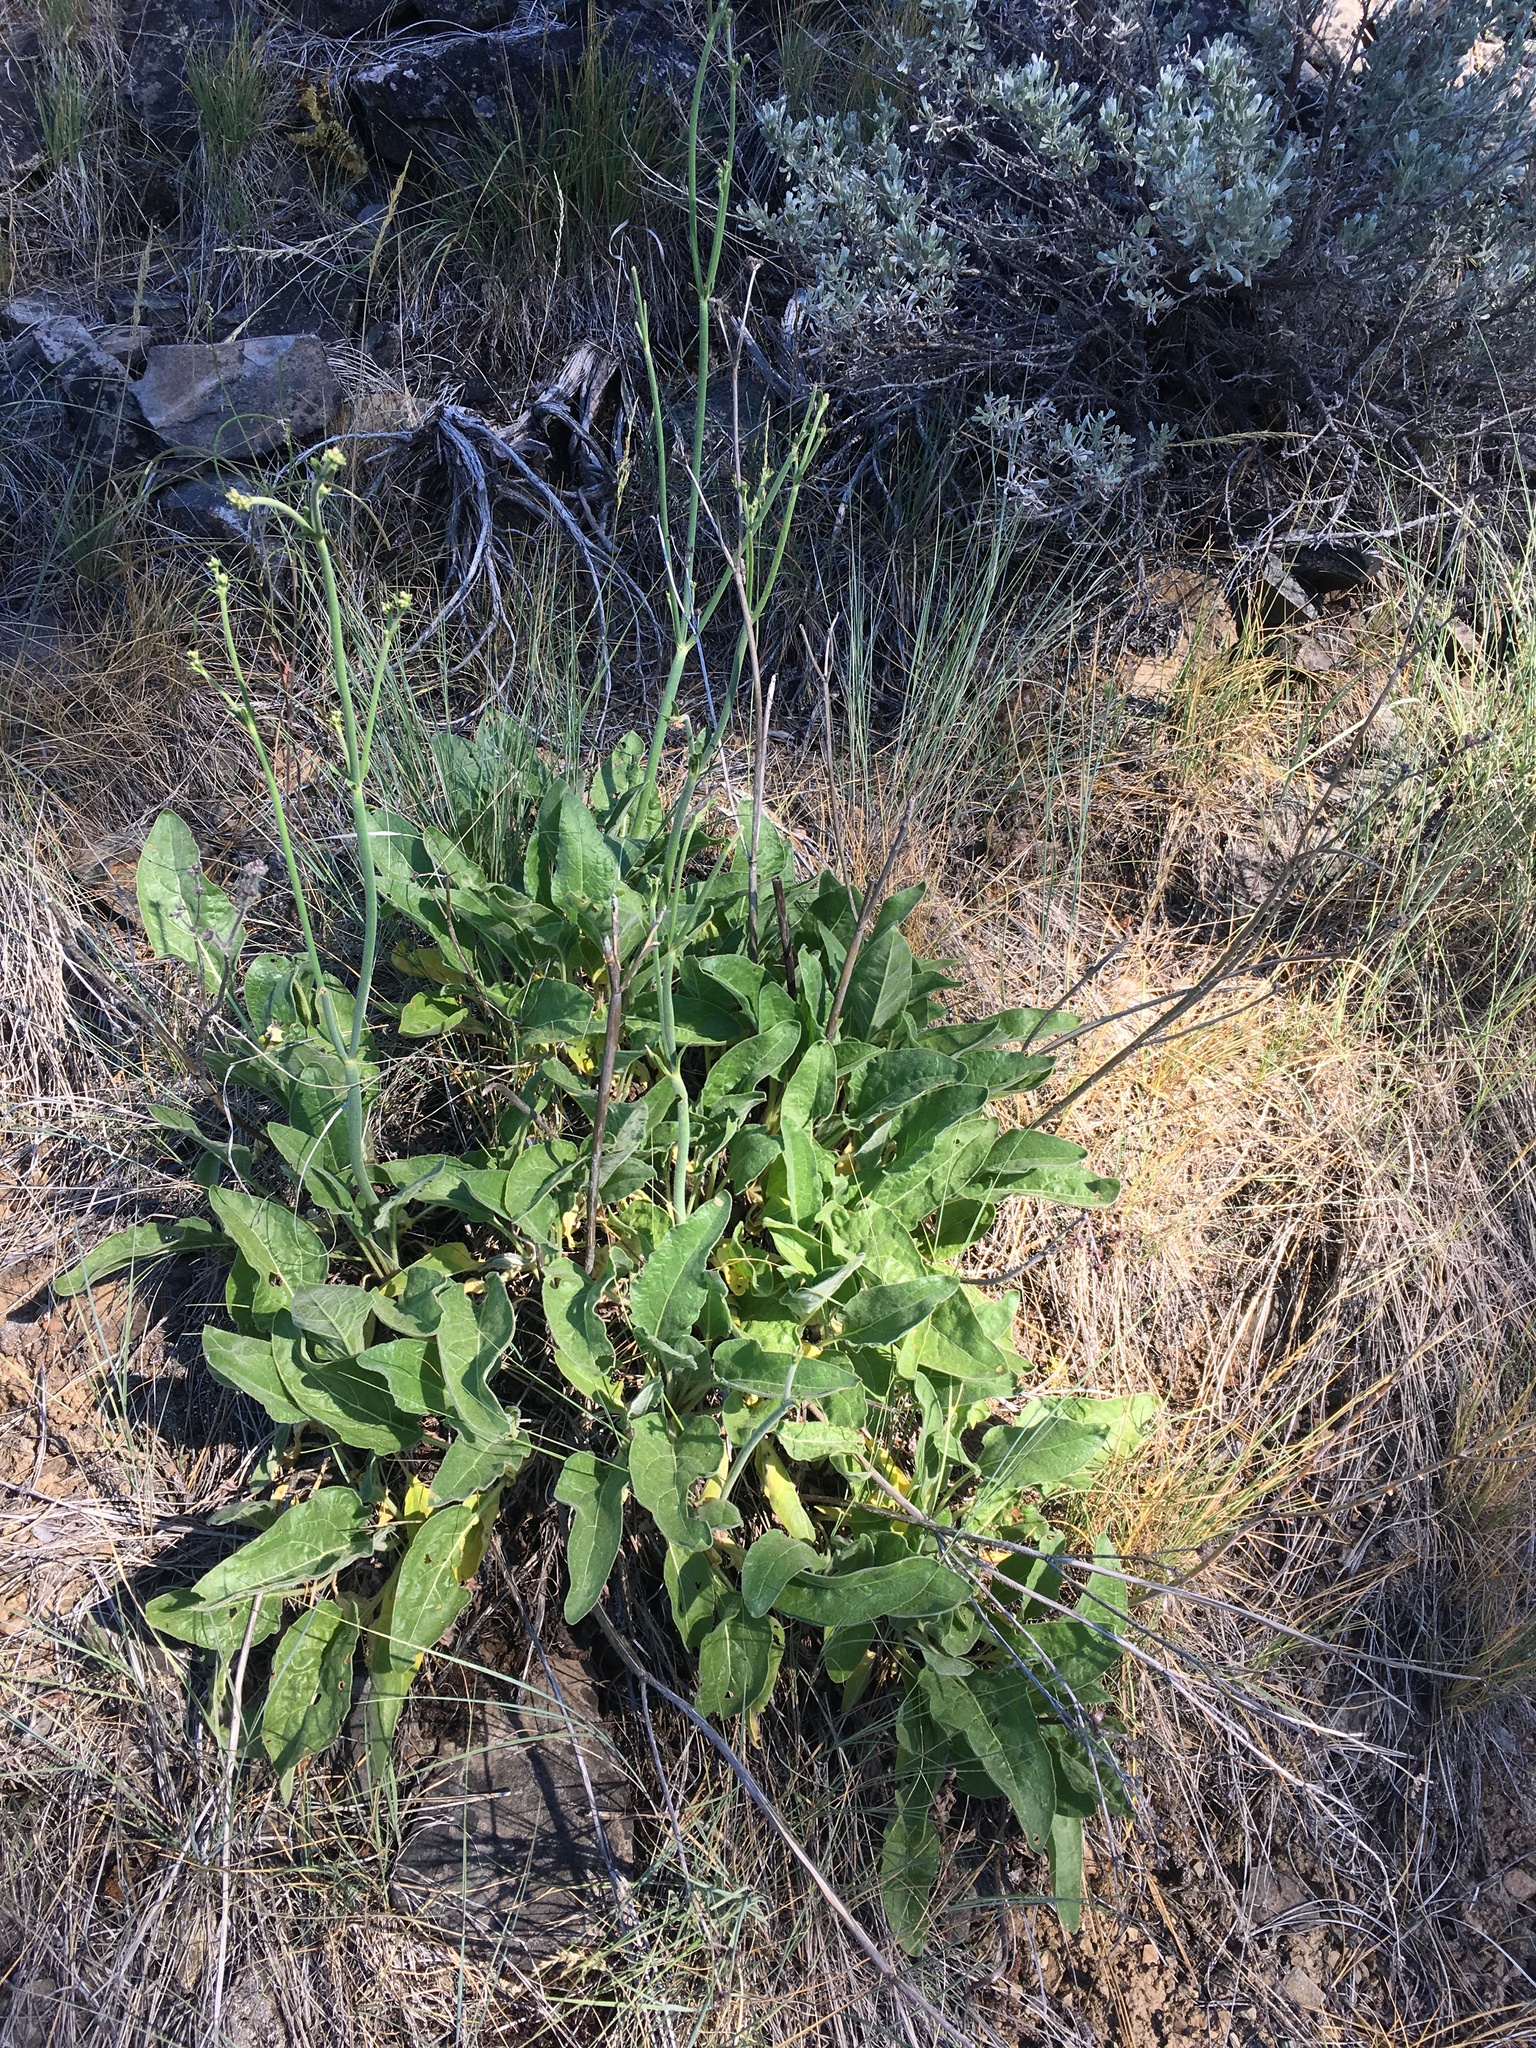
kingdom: Plantae
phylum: Tracheophyta
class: Magnoliopsida
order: Caryophyllales
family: Polygonaceae
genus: Eriogonum
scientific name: Eriogonum elatum
